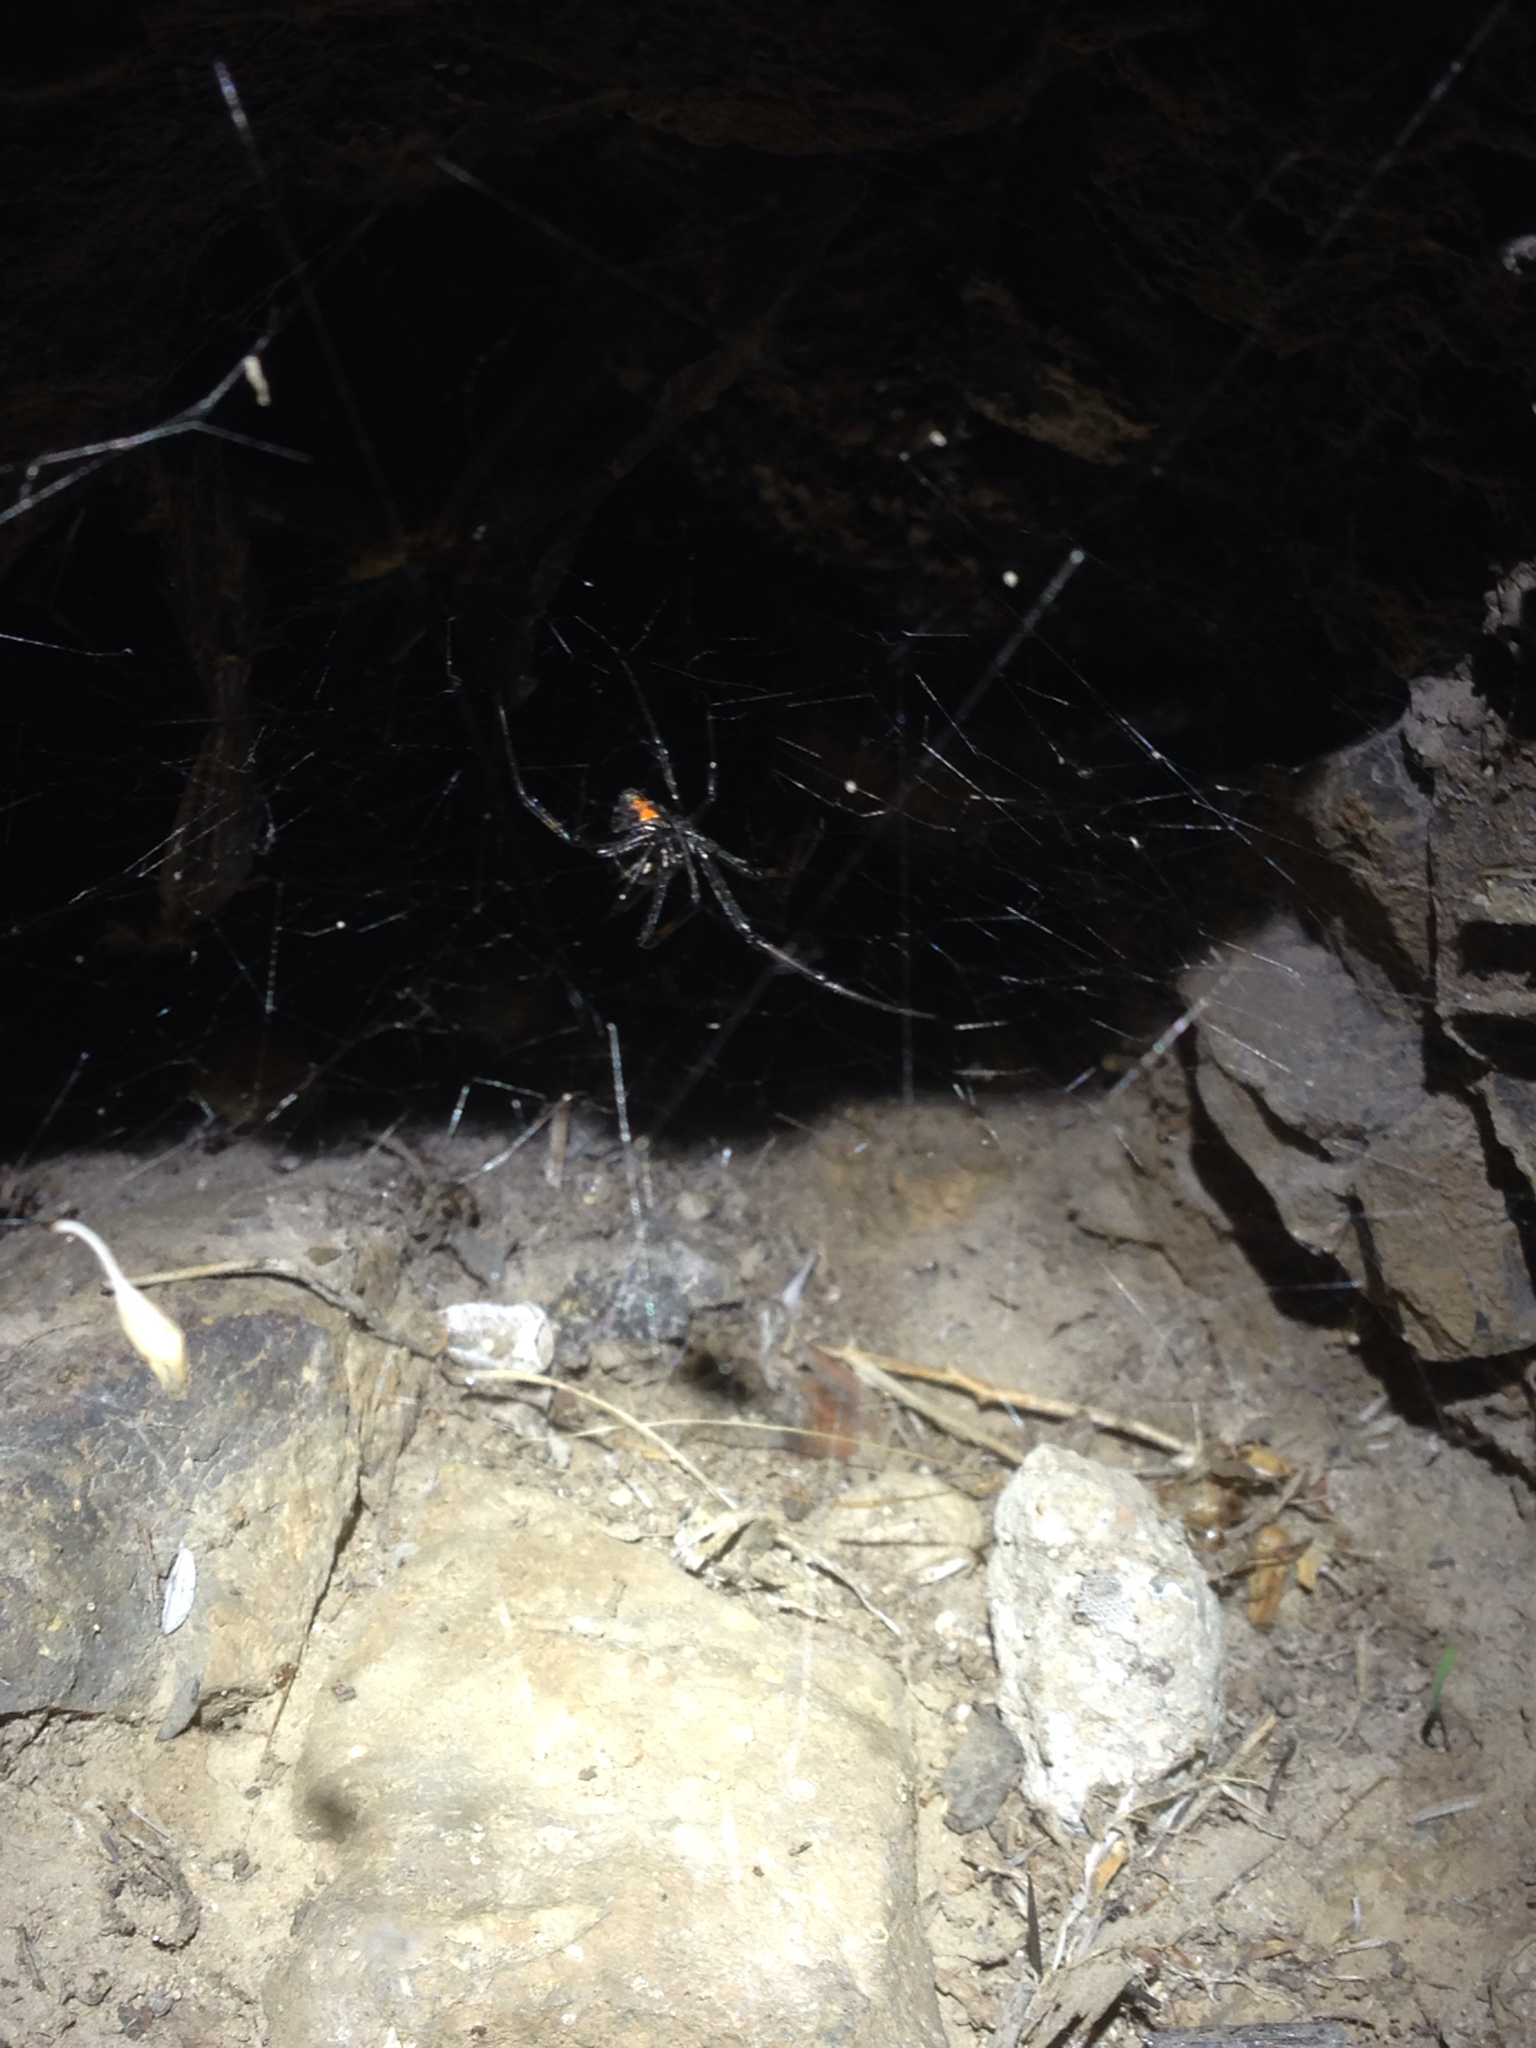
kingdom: Animalia
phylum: Arthropoda
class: Arachnida
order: Araneae
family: Theridiidae
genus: Latrodectus
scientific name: Latrodectus hesperus
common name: Western black widow
